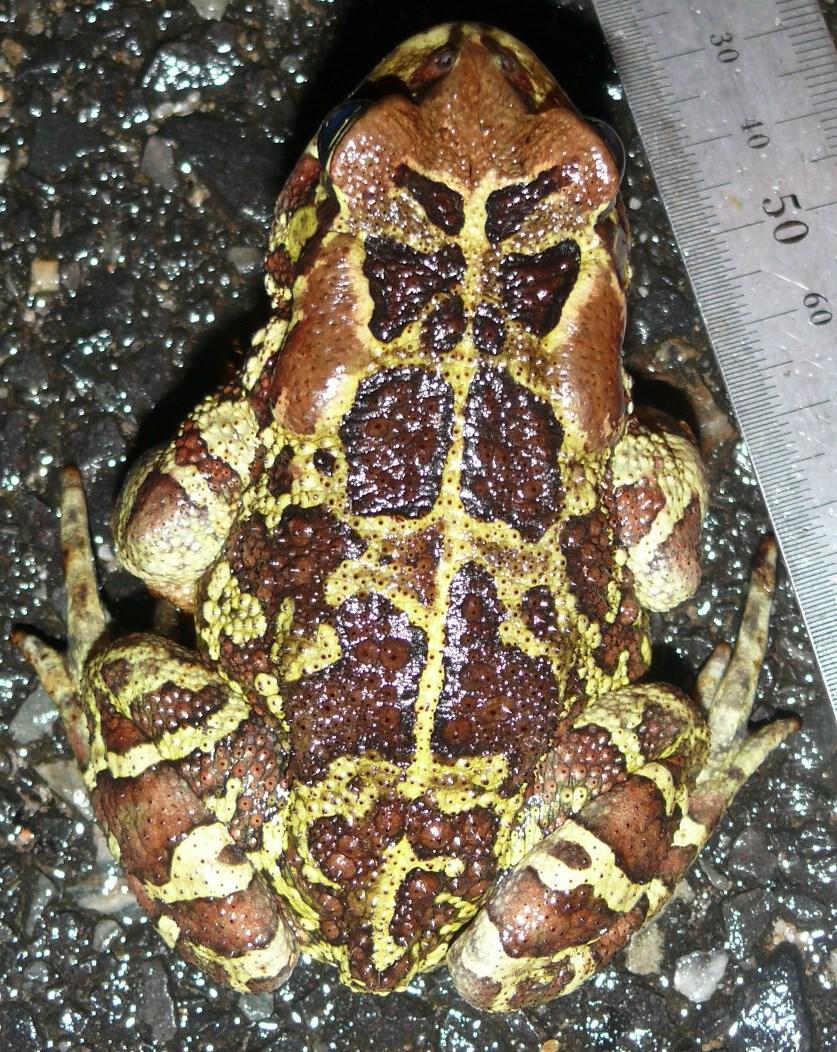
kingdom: Animalia
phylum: Chordata
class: Amphibia
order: Anura
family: Bufonidae
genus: Sclerophrys
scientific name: Sclerophrys pantherina
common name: Panther toad
